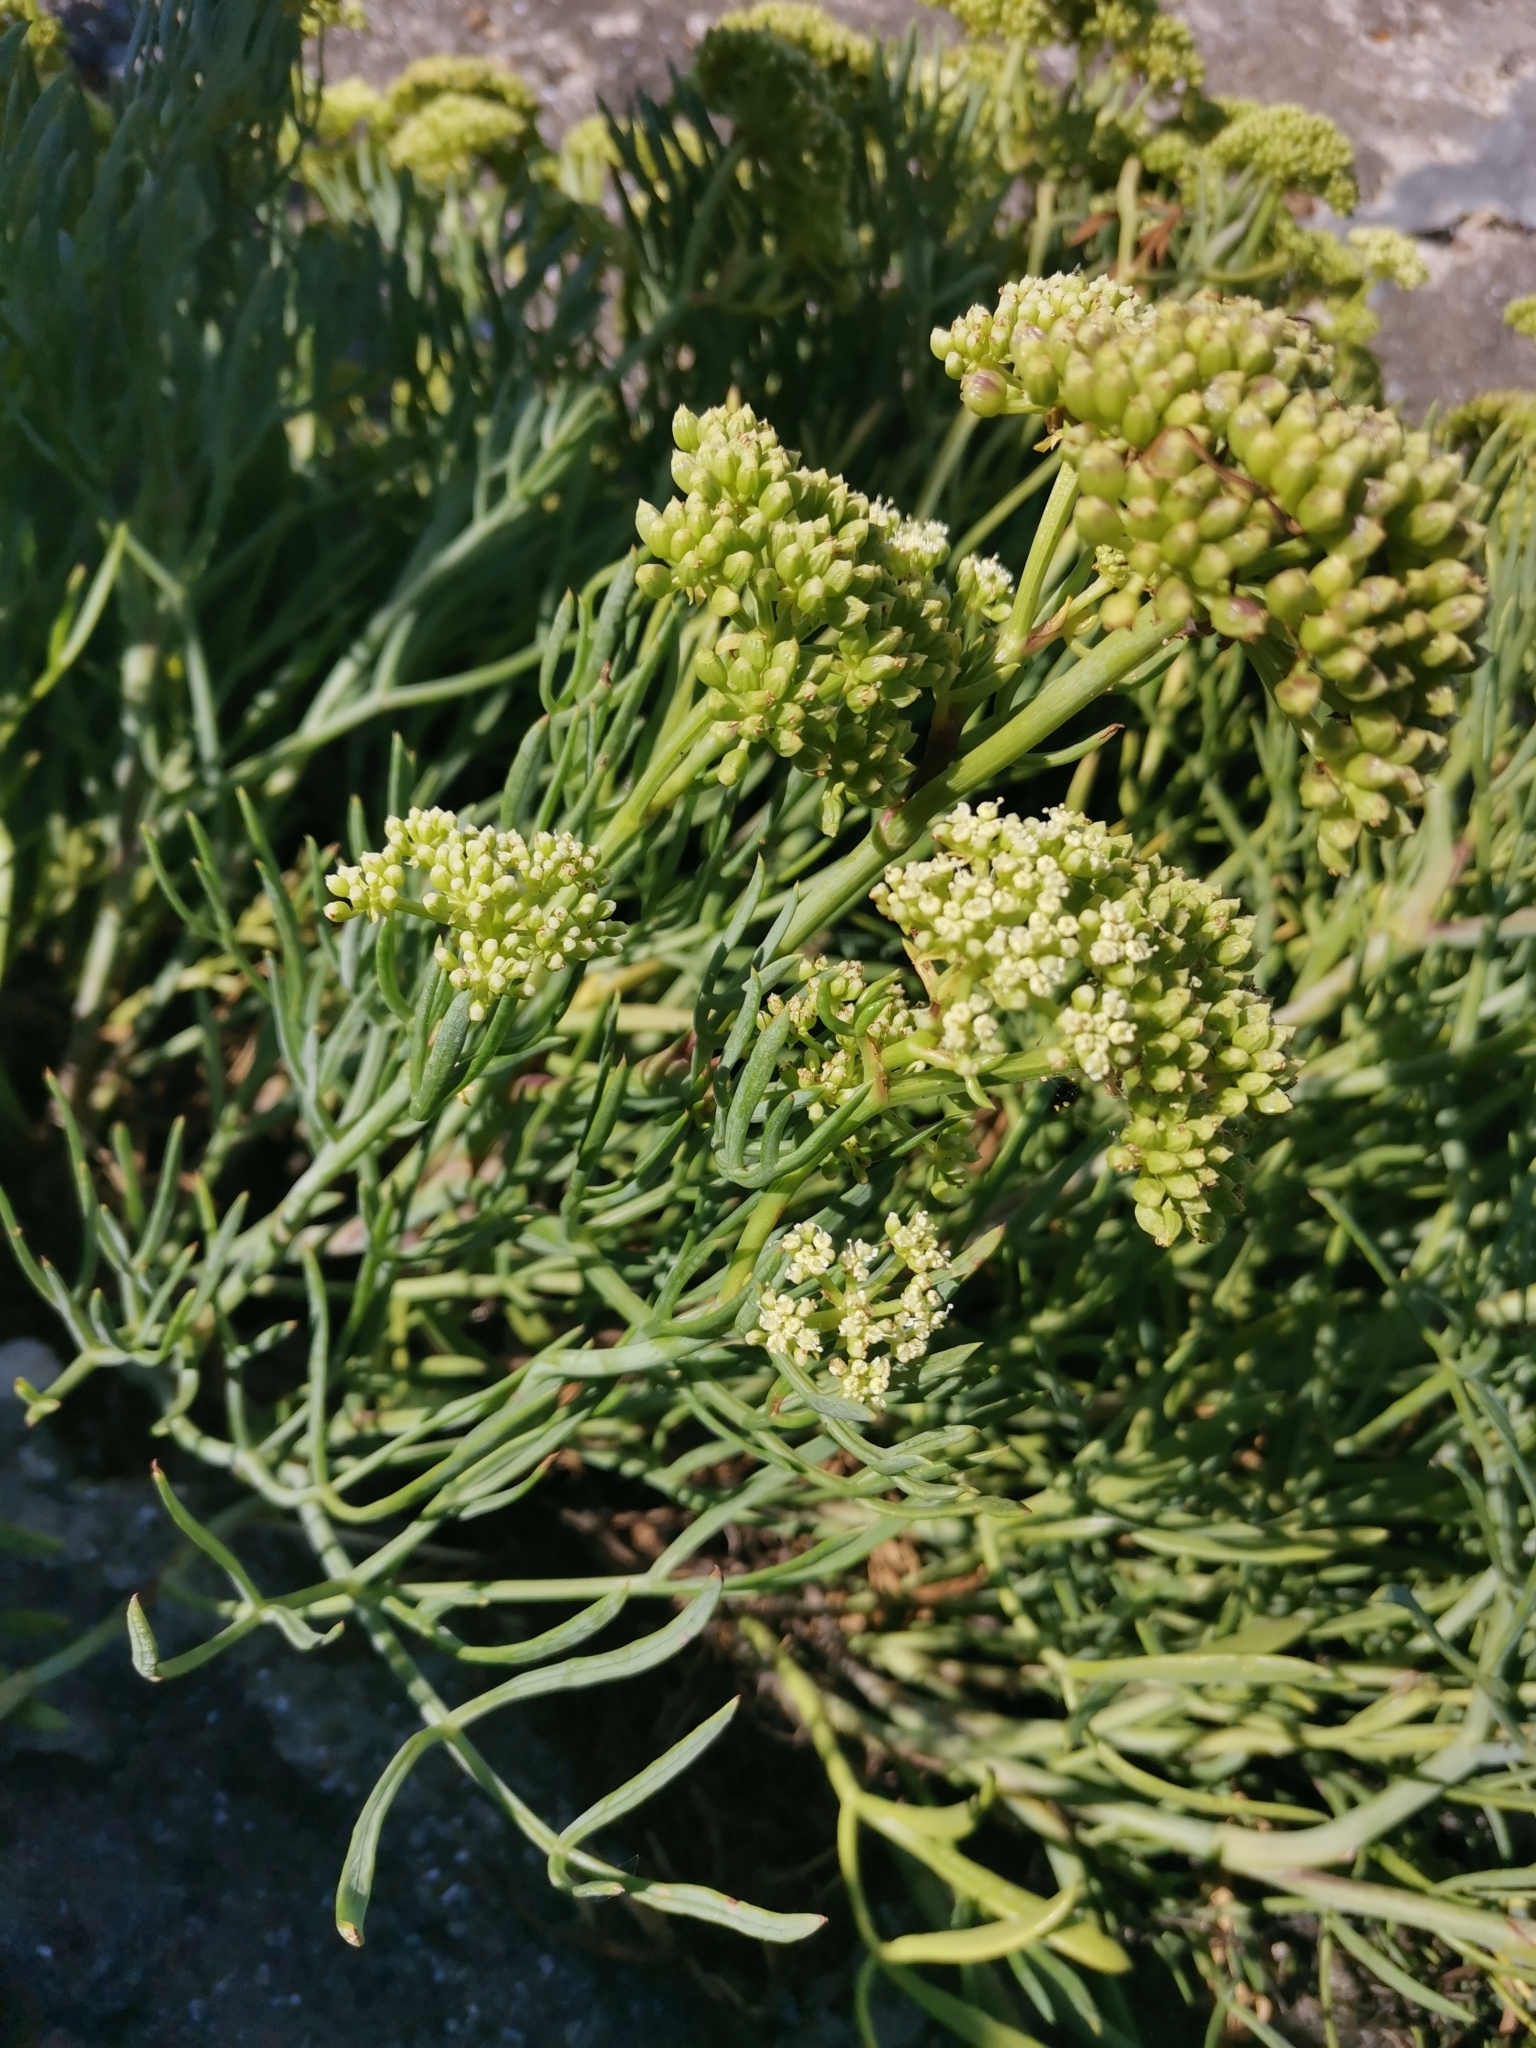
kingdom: Plantae
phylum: Tracheophyta
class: Magnoliopsida
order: Apiales
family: Apiaceae
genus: Crithmum
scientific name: Crithmum maritimum
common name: Rock samphire
